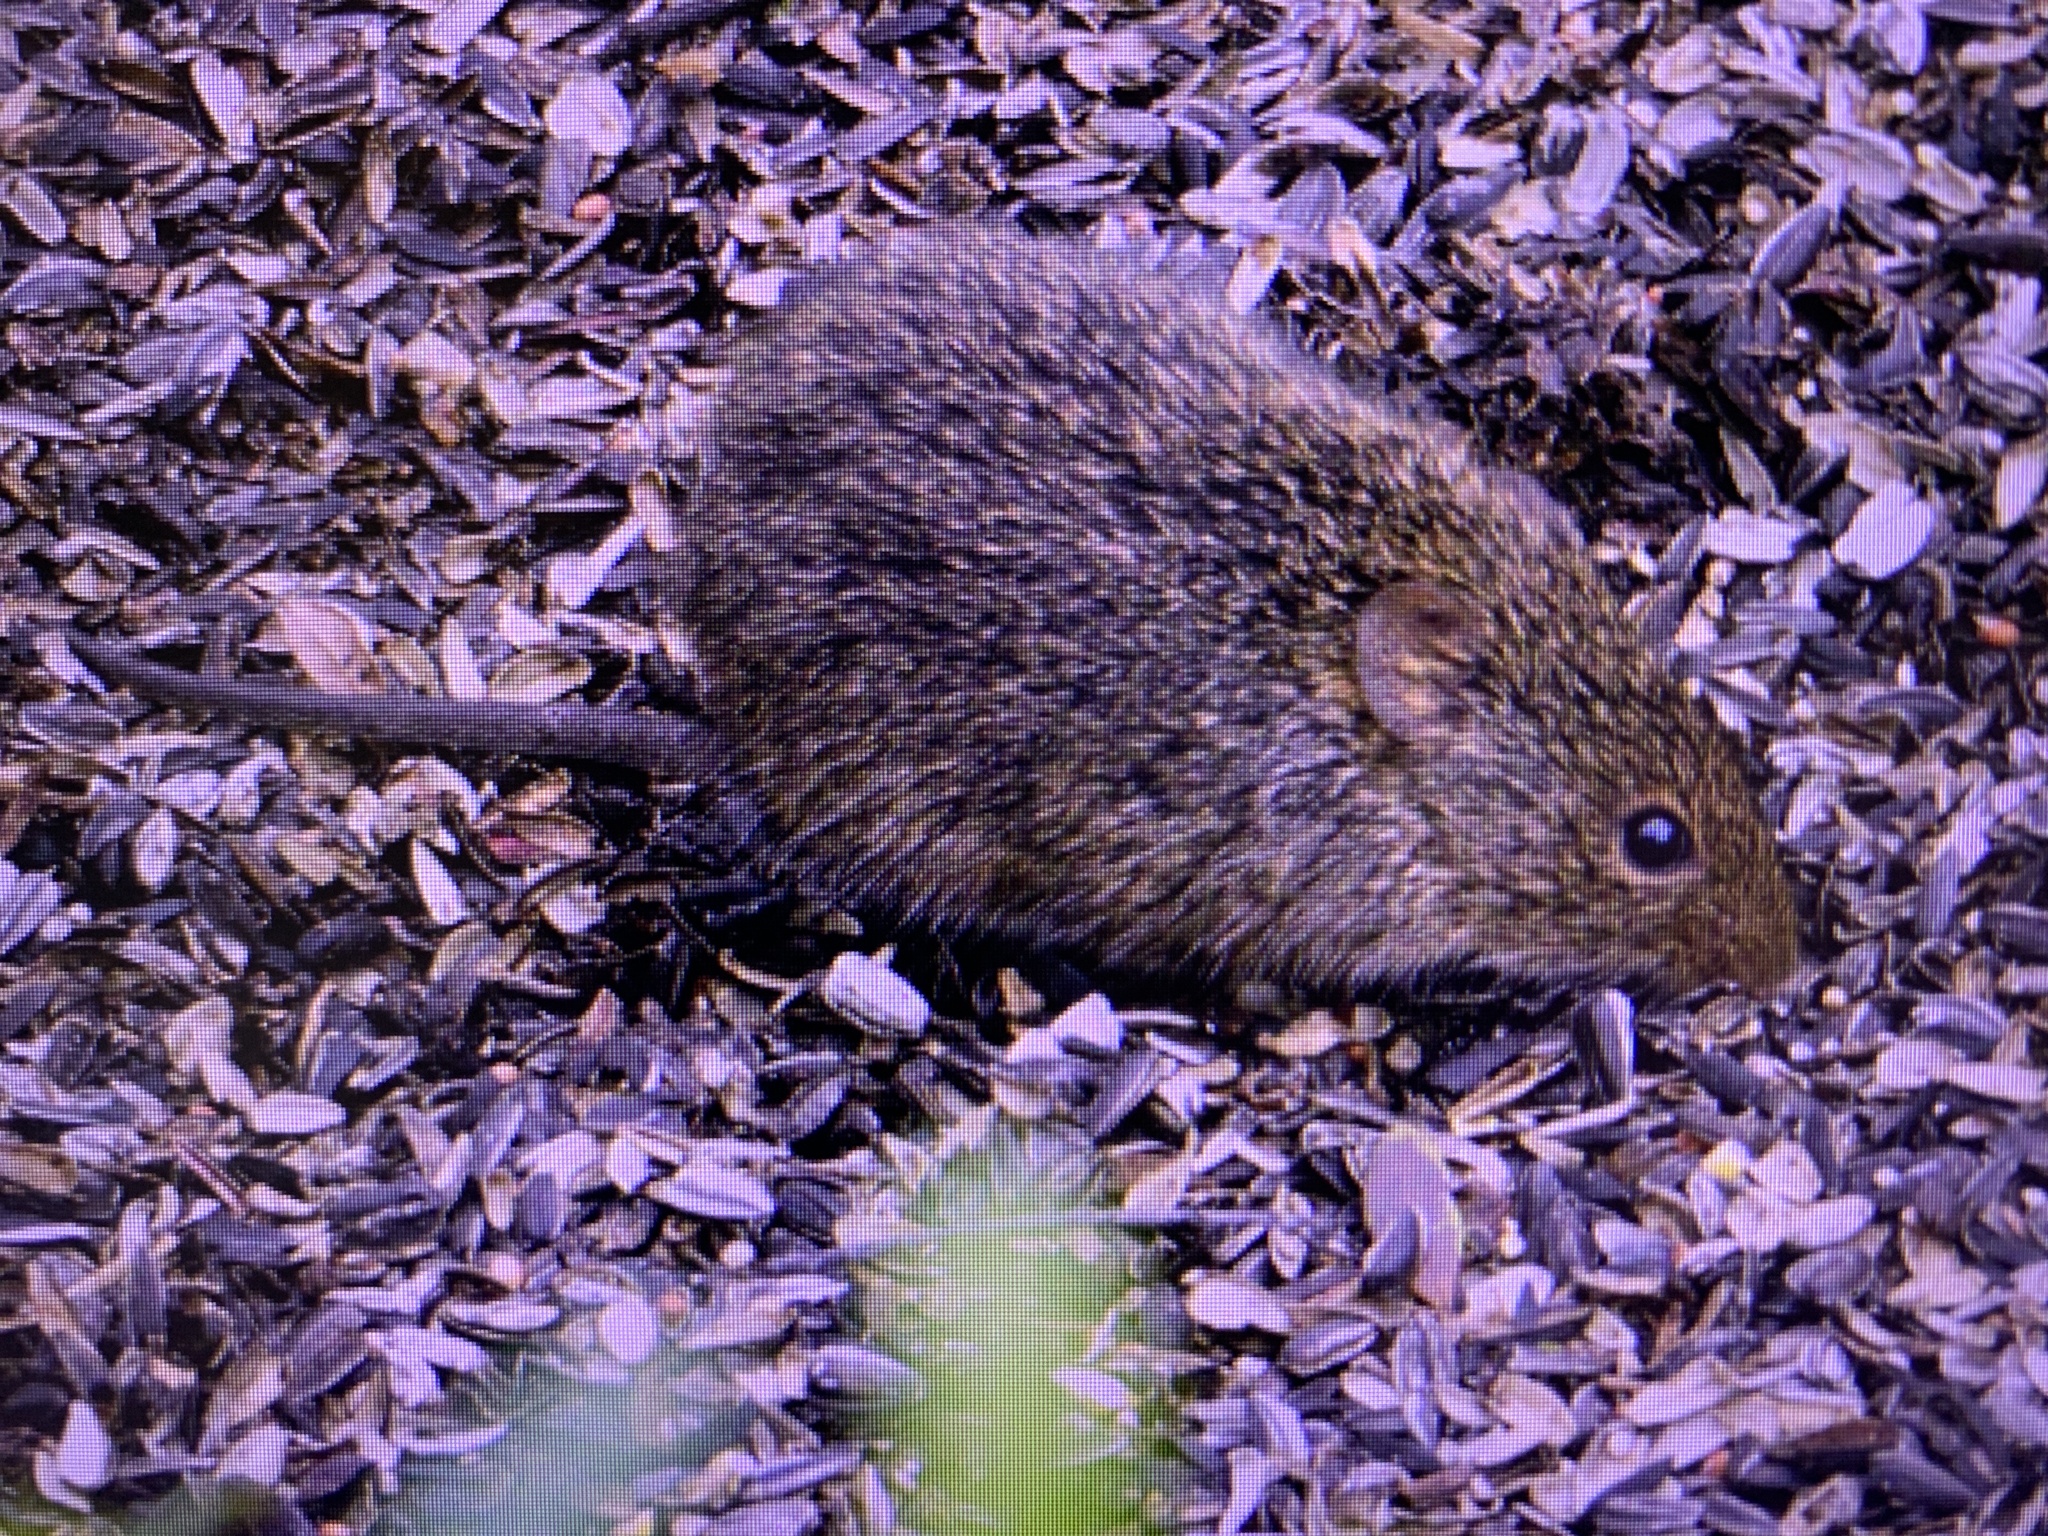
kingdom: Animalia
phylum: Chordata
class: Mammalia
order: Rodentia
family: Cricetidae
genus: Sigmodon
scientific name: Sigmodon hispidus
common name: Hispid cotton rat
